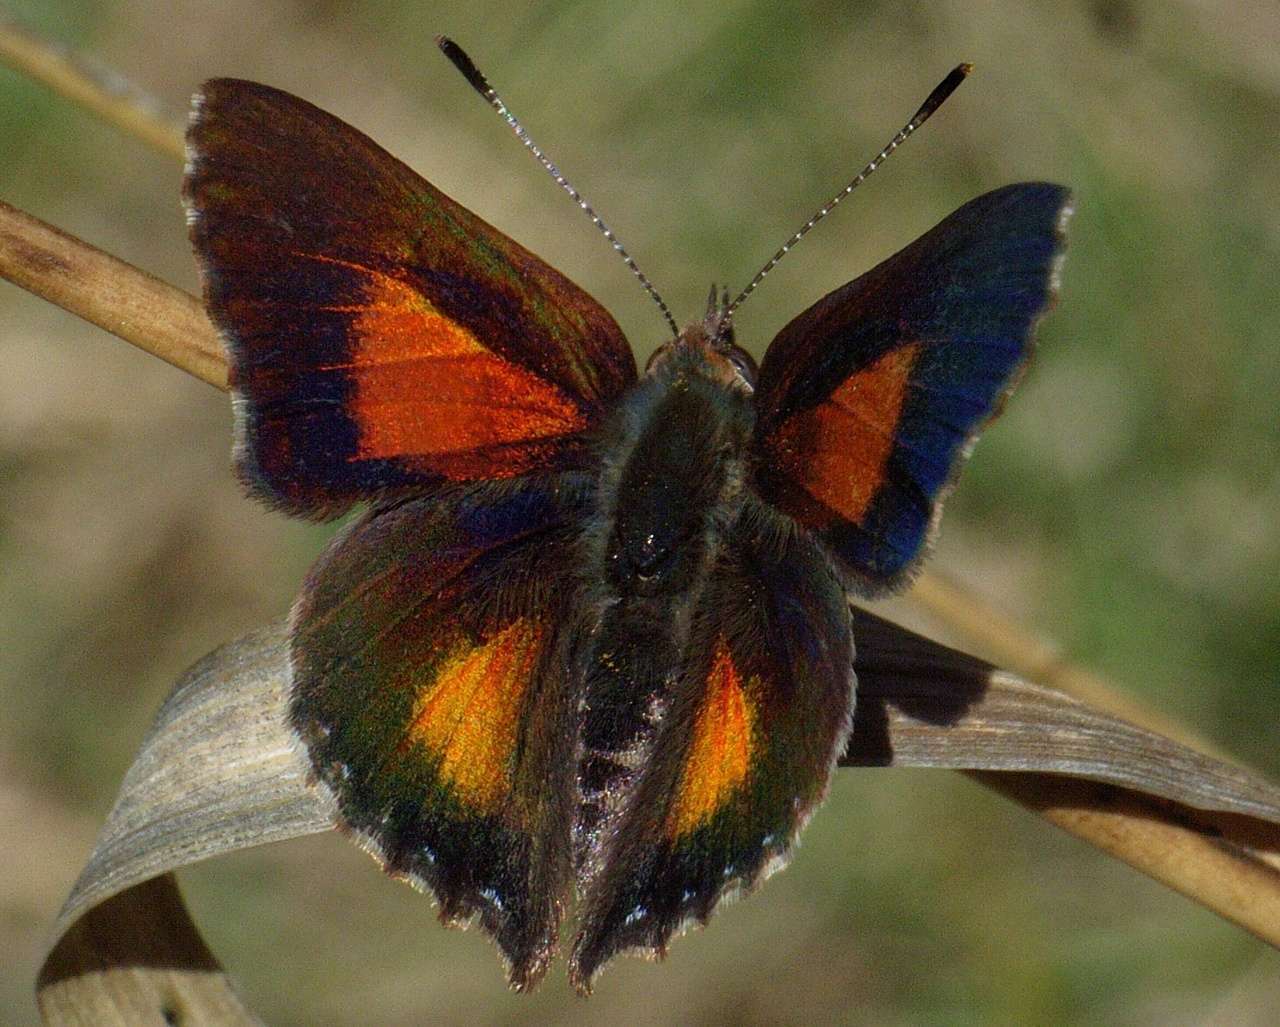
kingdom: Animalia
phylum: Arthropoda
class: Insecta
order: Lepidoptera
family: Lycaenidae
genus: Paralucia
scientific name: Paralucia aurifer
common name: Bright copper
